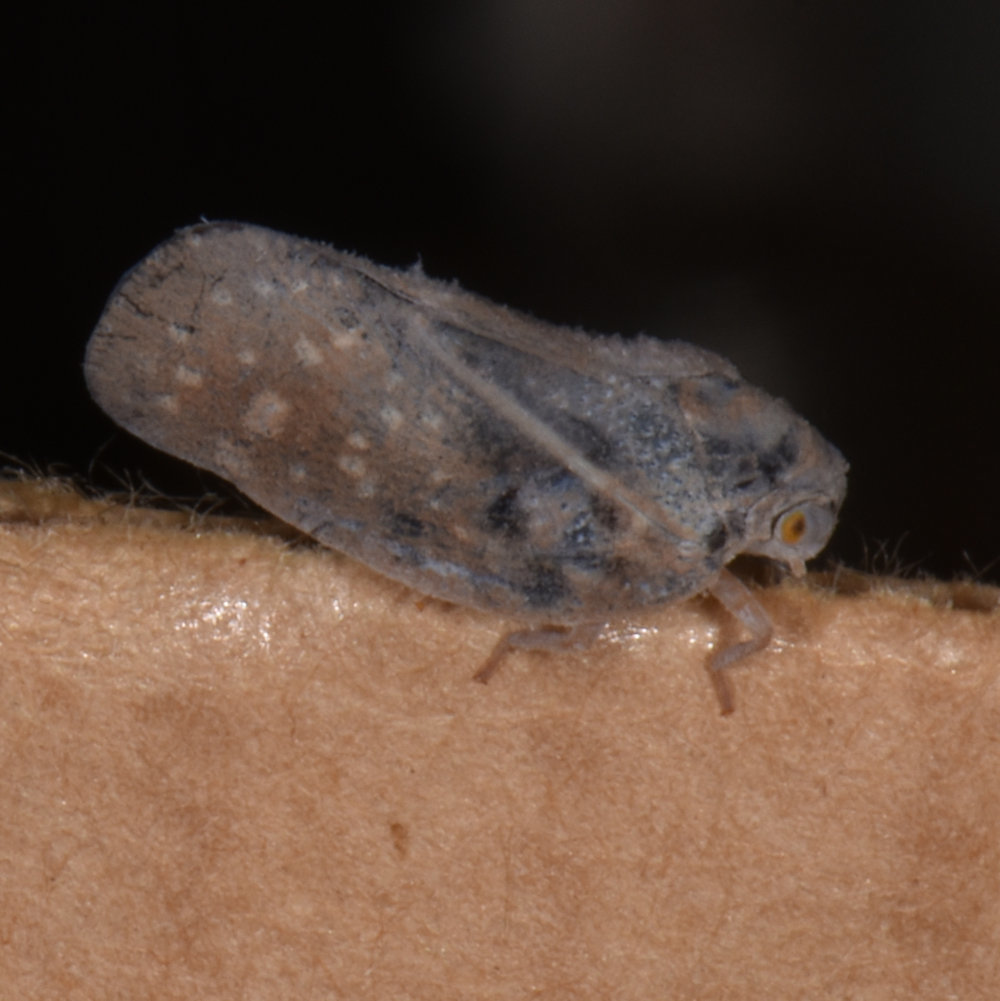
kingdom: Animalia
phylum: Arthropoda
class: Insecta
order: Hemiptera
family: Flatidae
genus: Metcalfa
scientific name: Metcalfa pruinosa
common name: Citrus flatid planthopper
